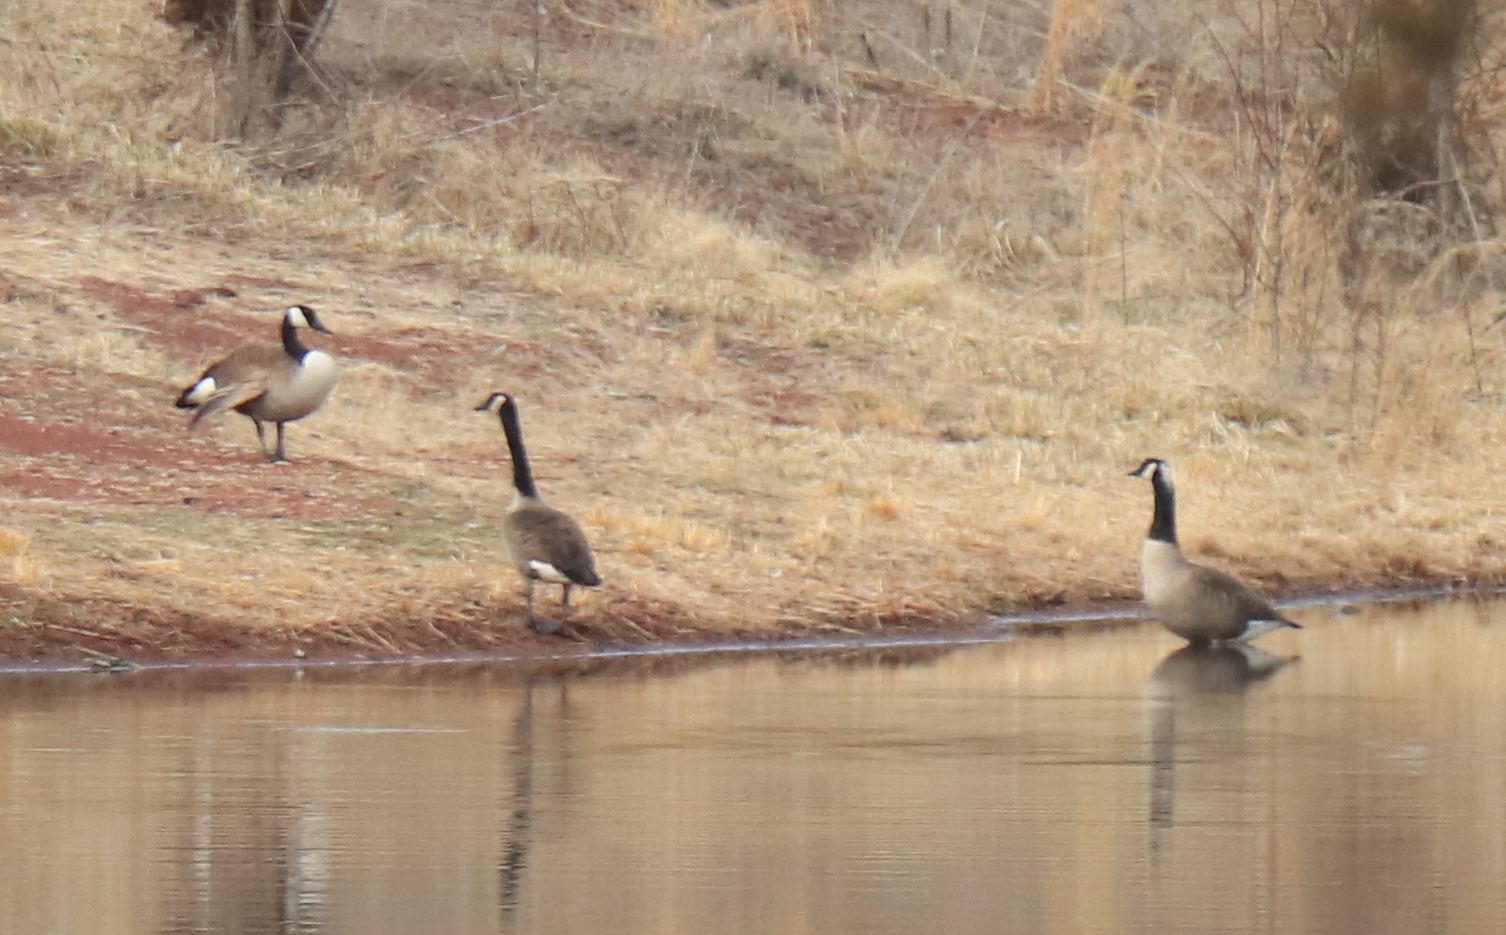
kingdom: Animalia
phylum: Chordata
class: Aves
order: Anseriformes
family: Anatidae
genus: Branta
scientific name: Branta canadensis
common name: Canada goose
